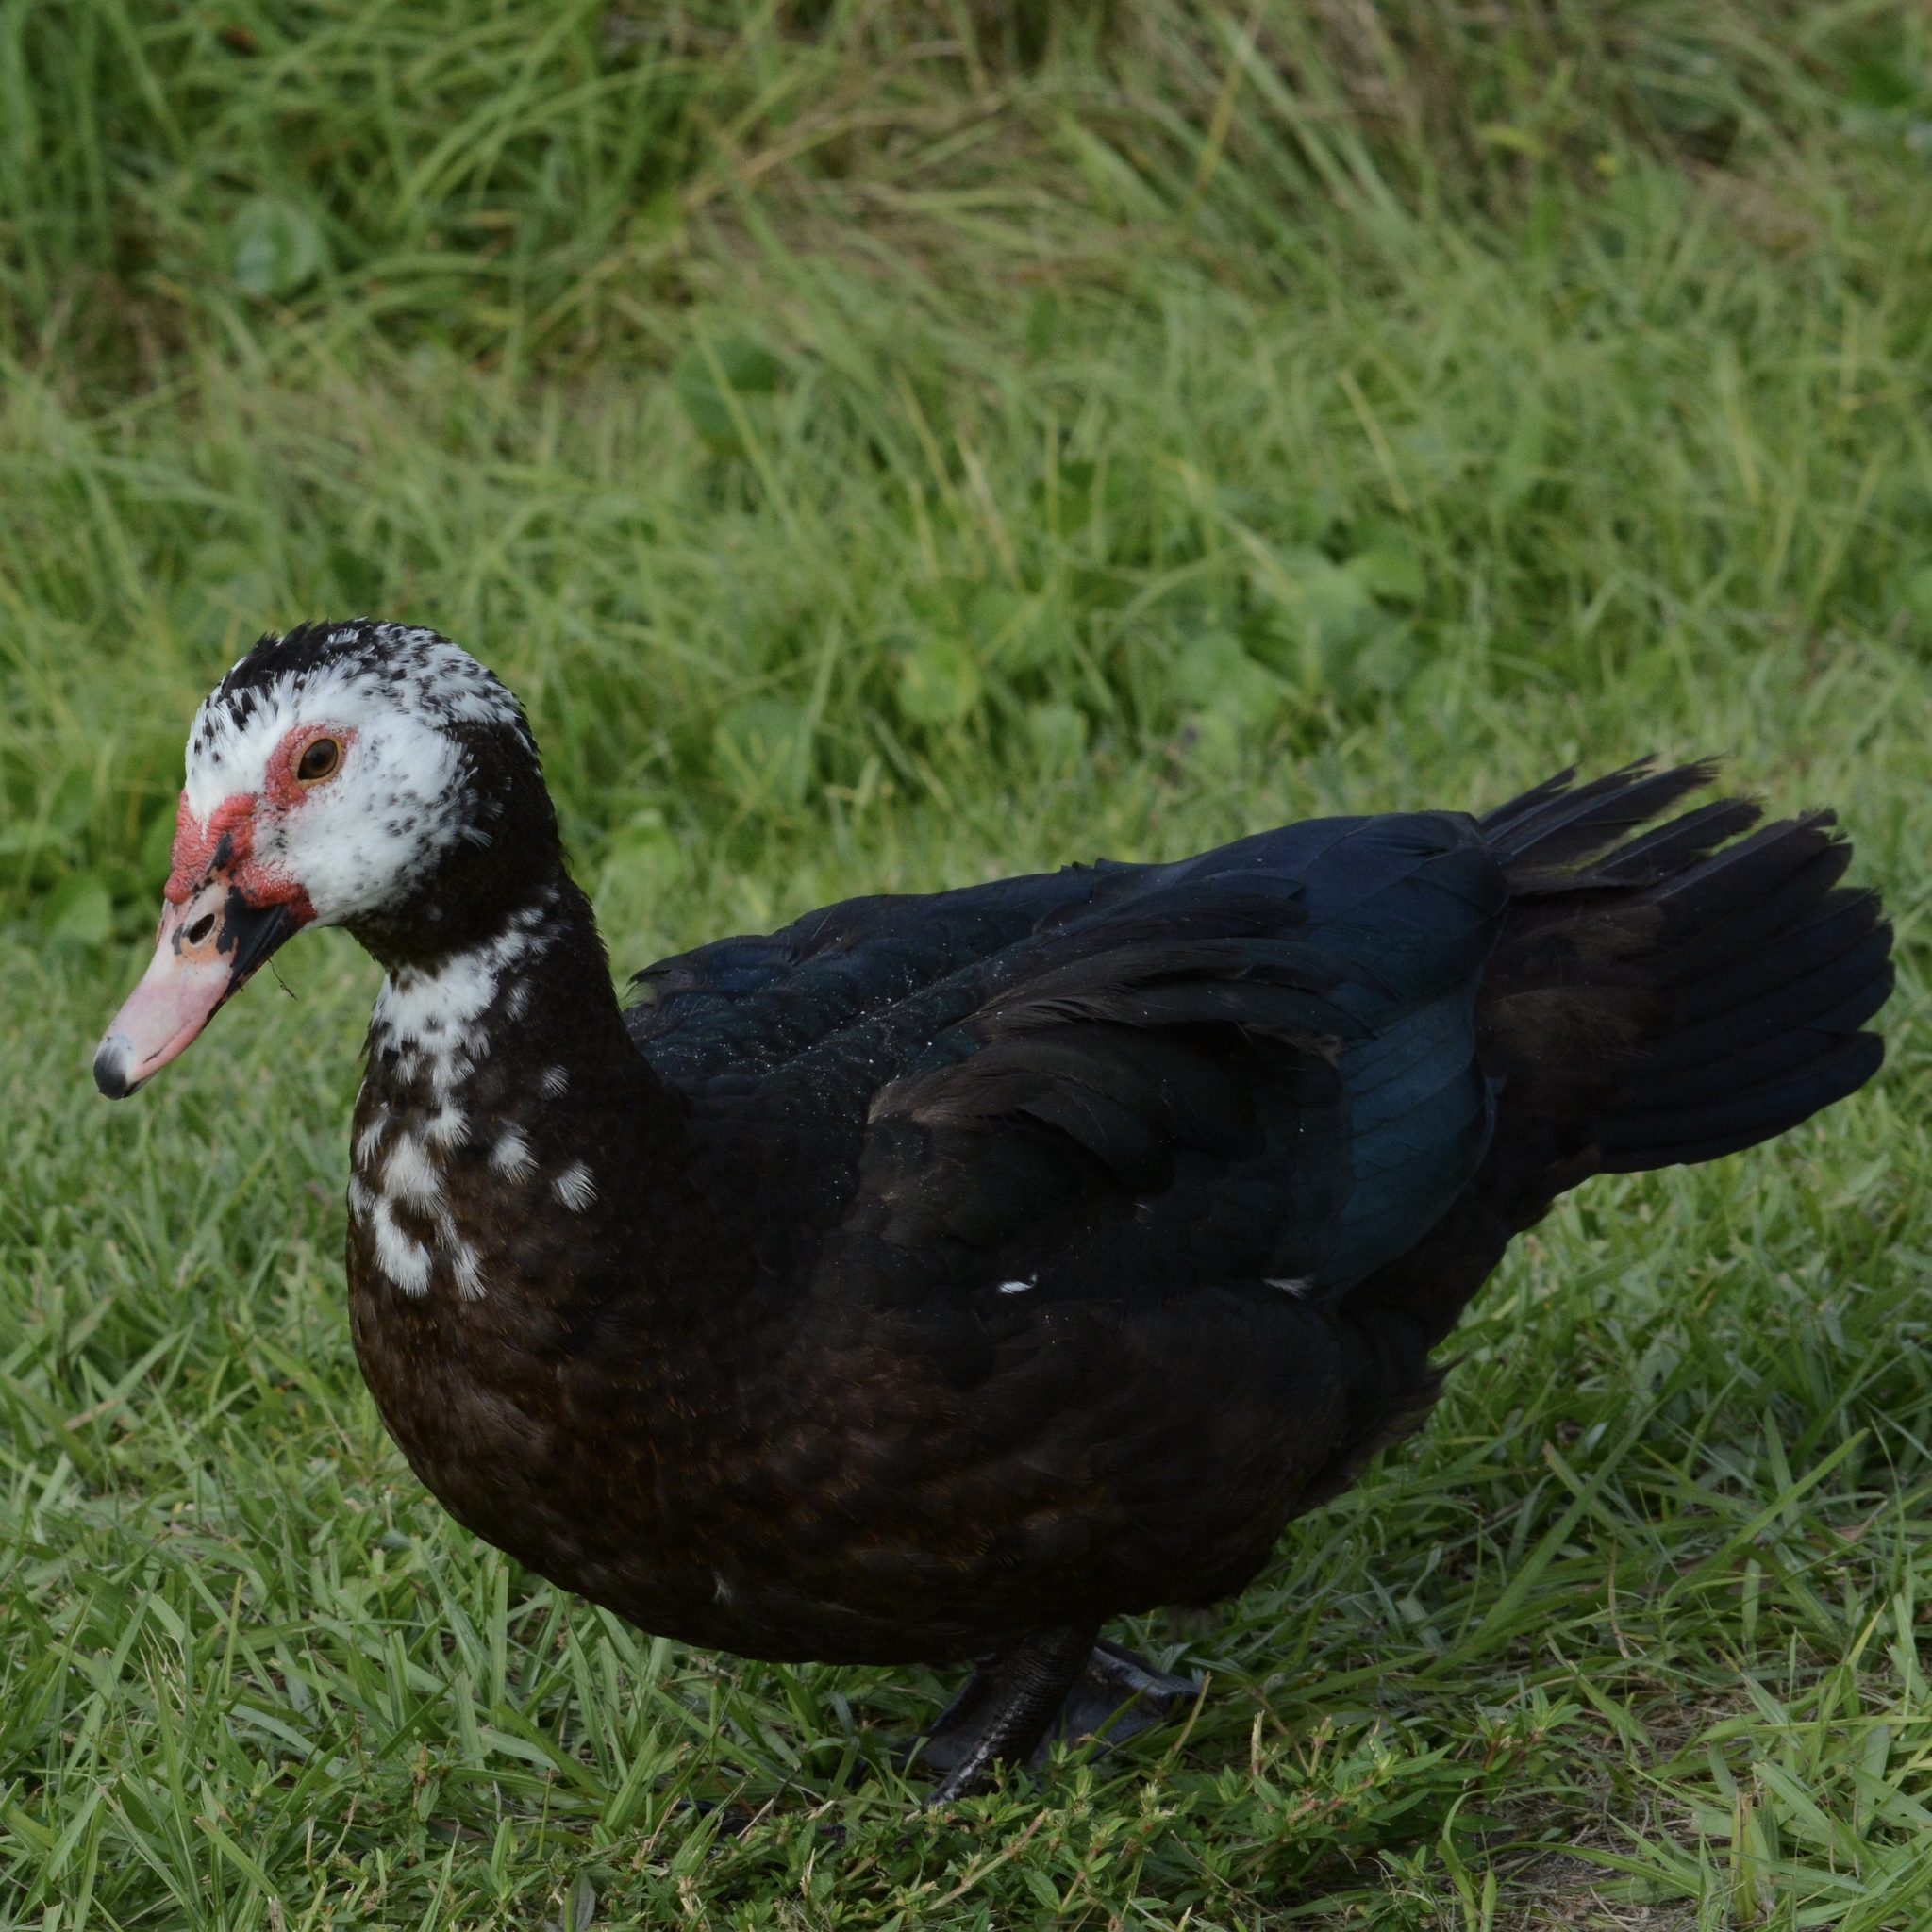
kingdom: Animalia
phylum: Chordata
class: Aves
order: Anseriformes
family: Anatidae
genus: Cairina
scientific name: Cairina moschata
